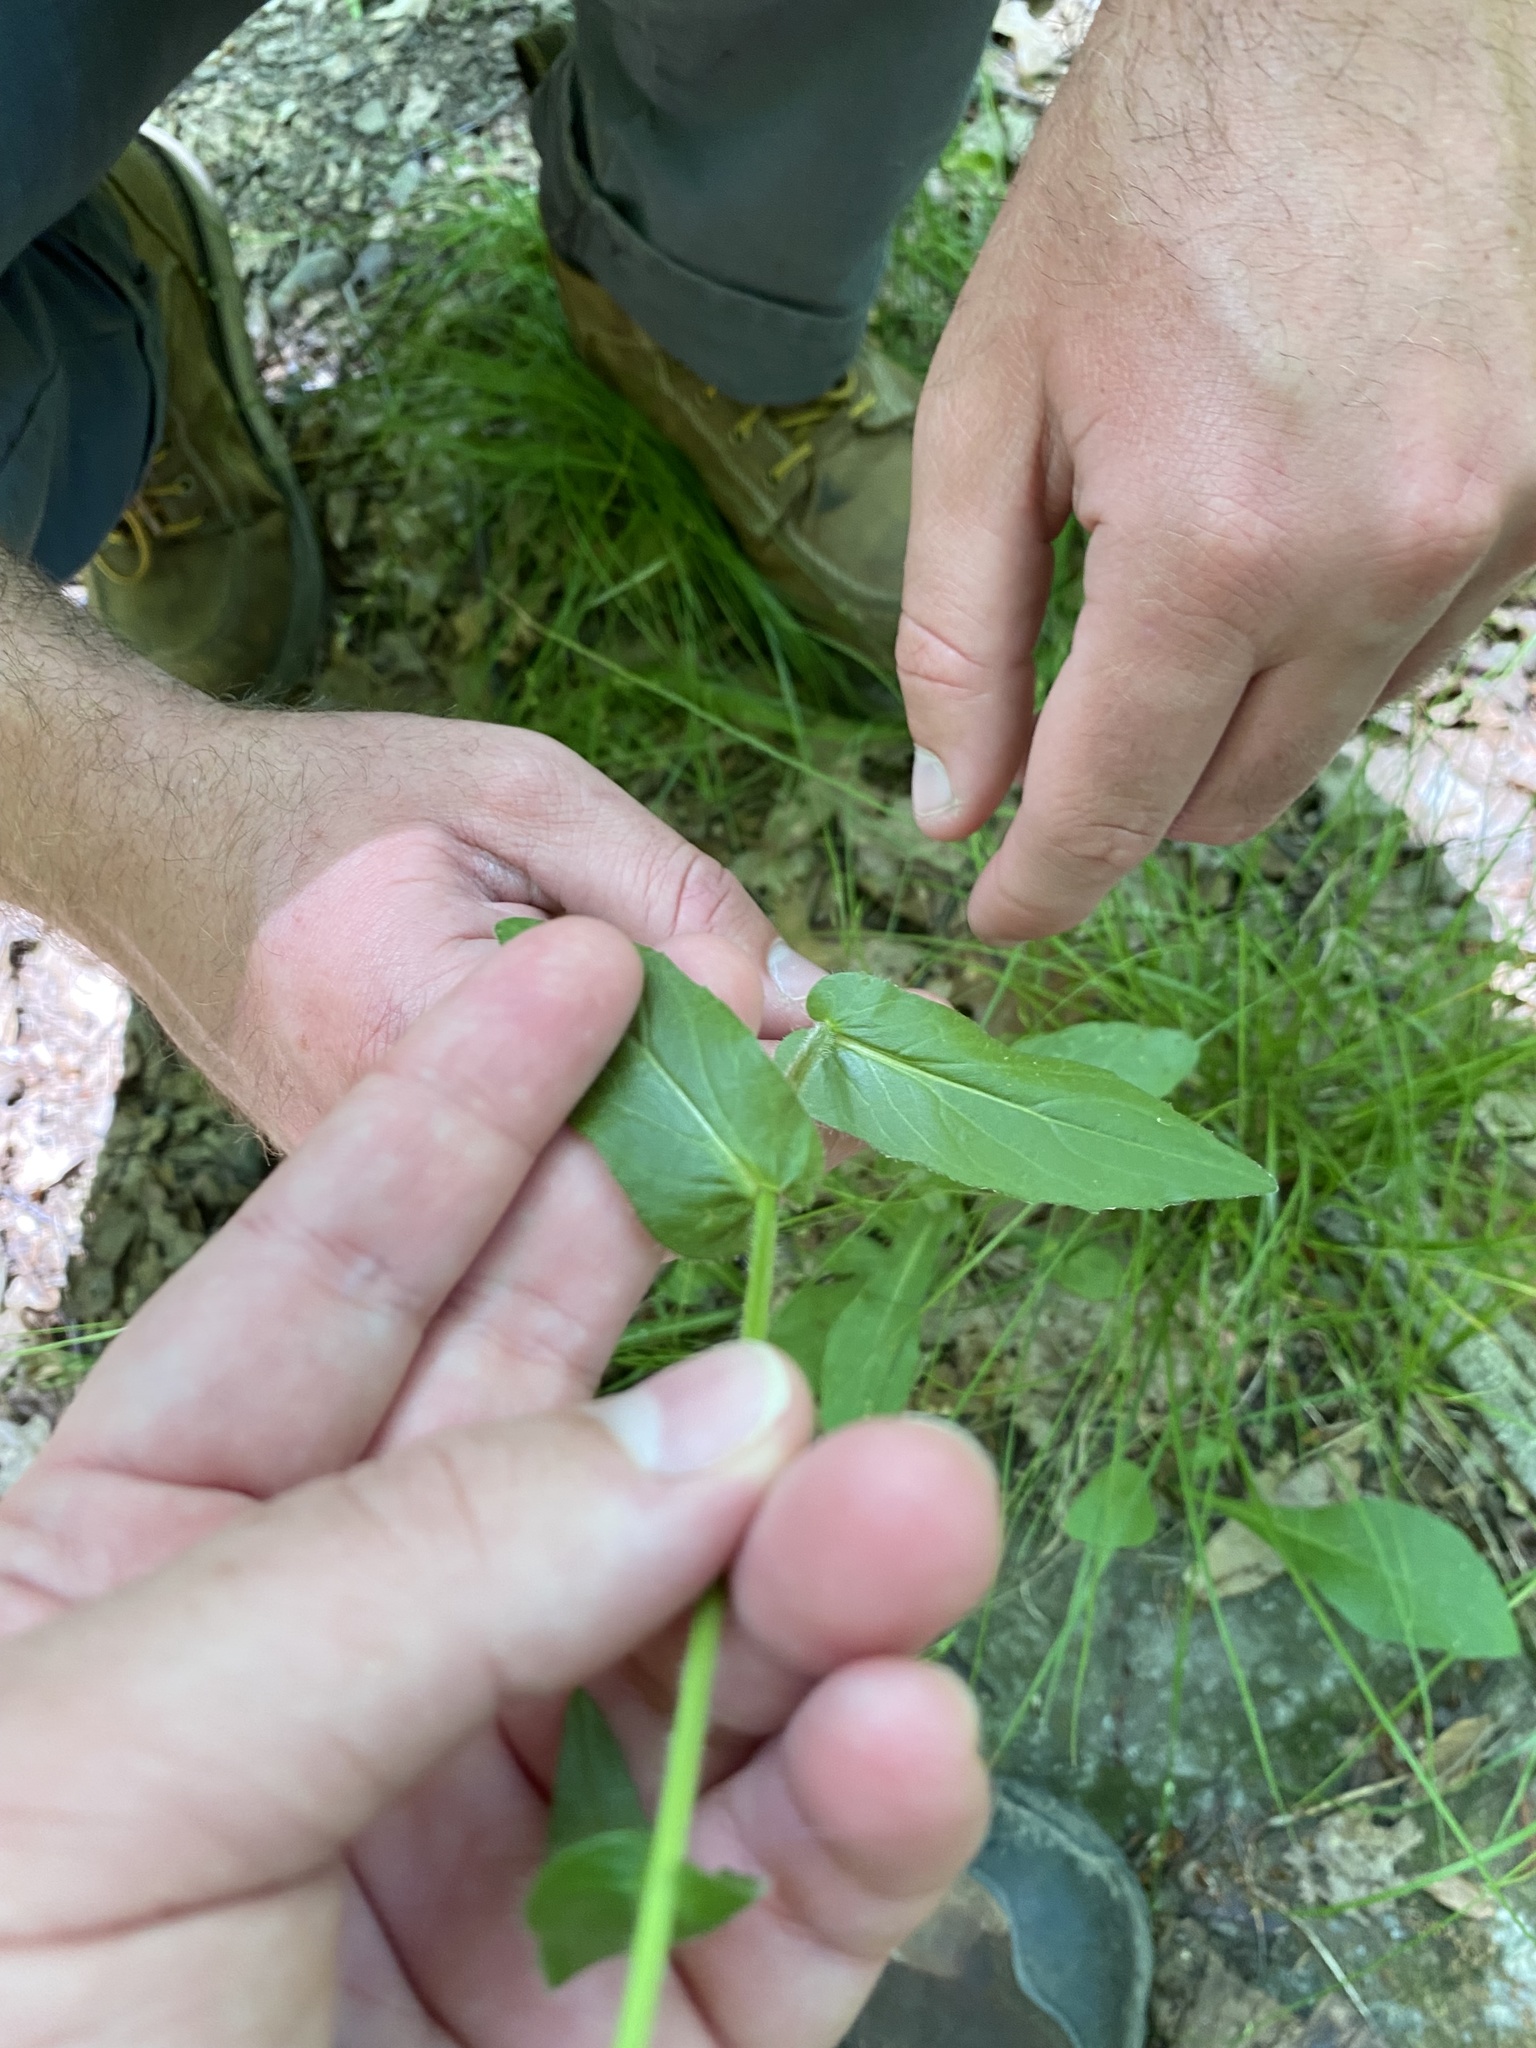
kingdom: Plantae
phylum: Tracheophyta
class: Magnoliopsida
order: Asterales
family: Asteraceae
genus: Erigeron
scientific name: Erigeron philadelphicus
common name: Robin's-plantain
